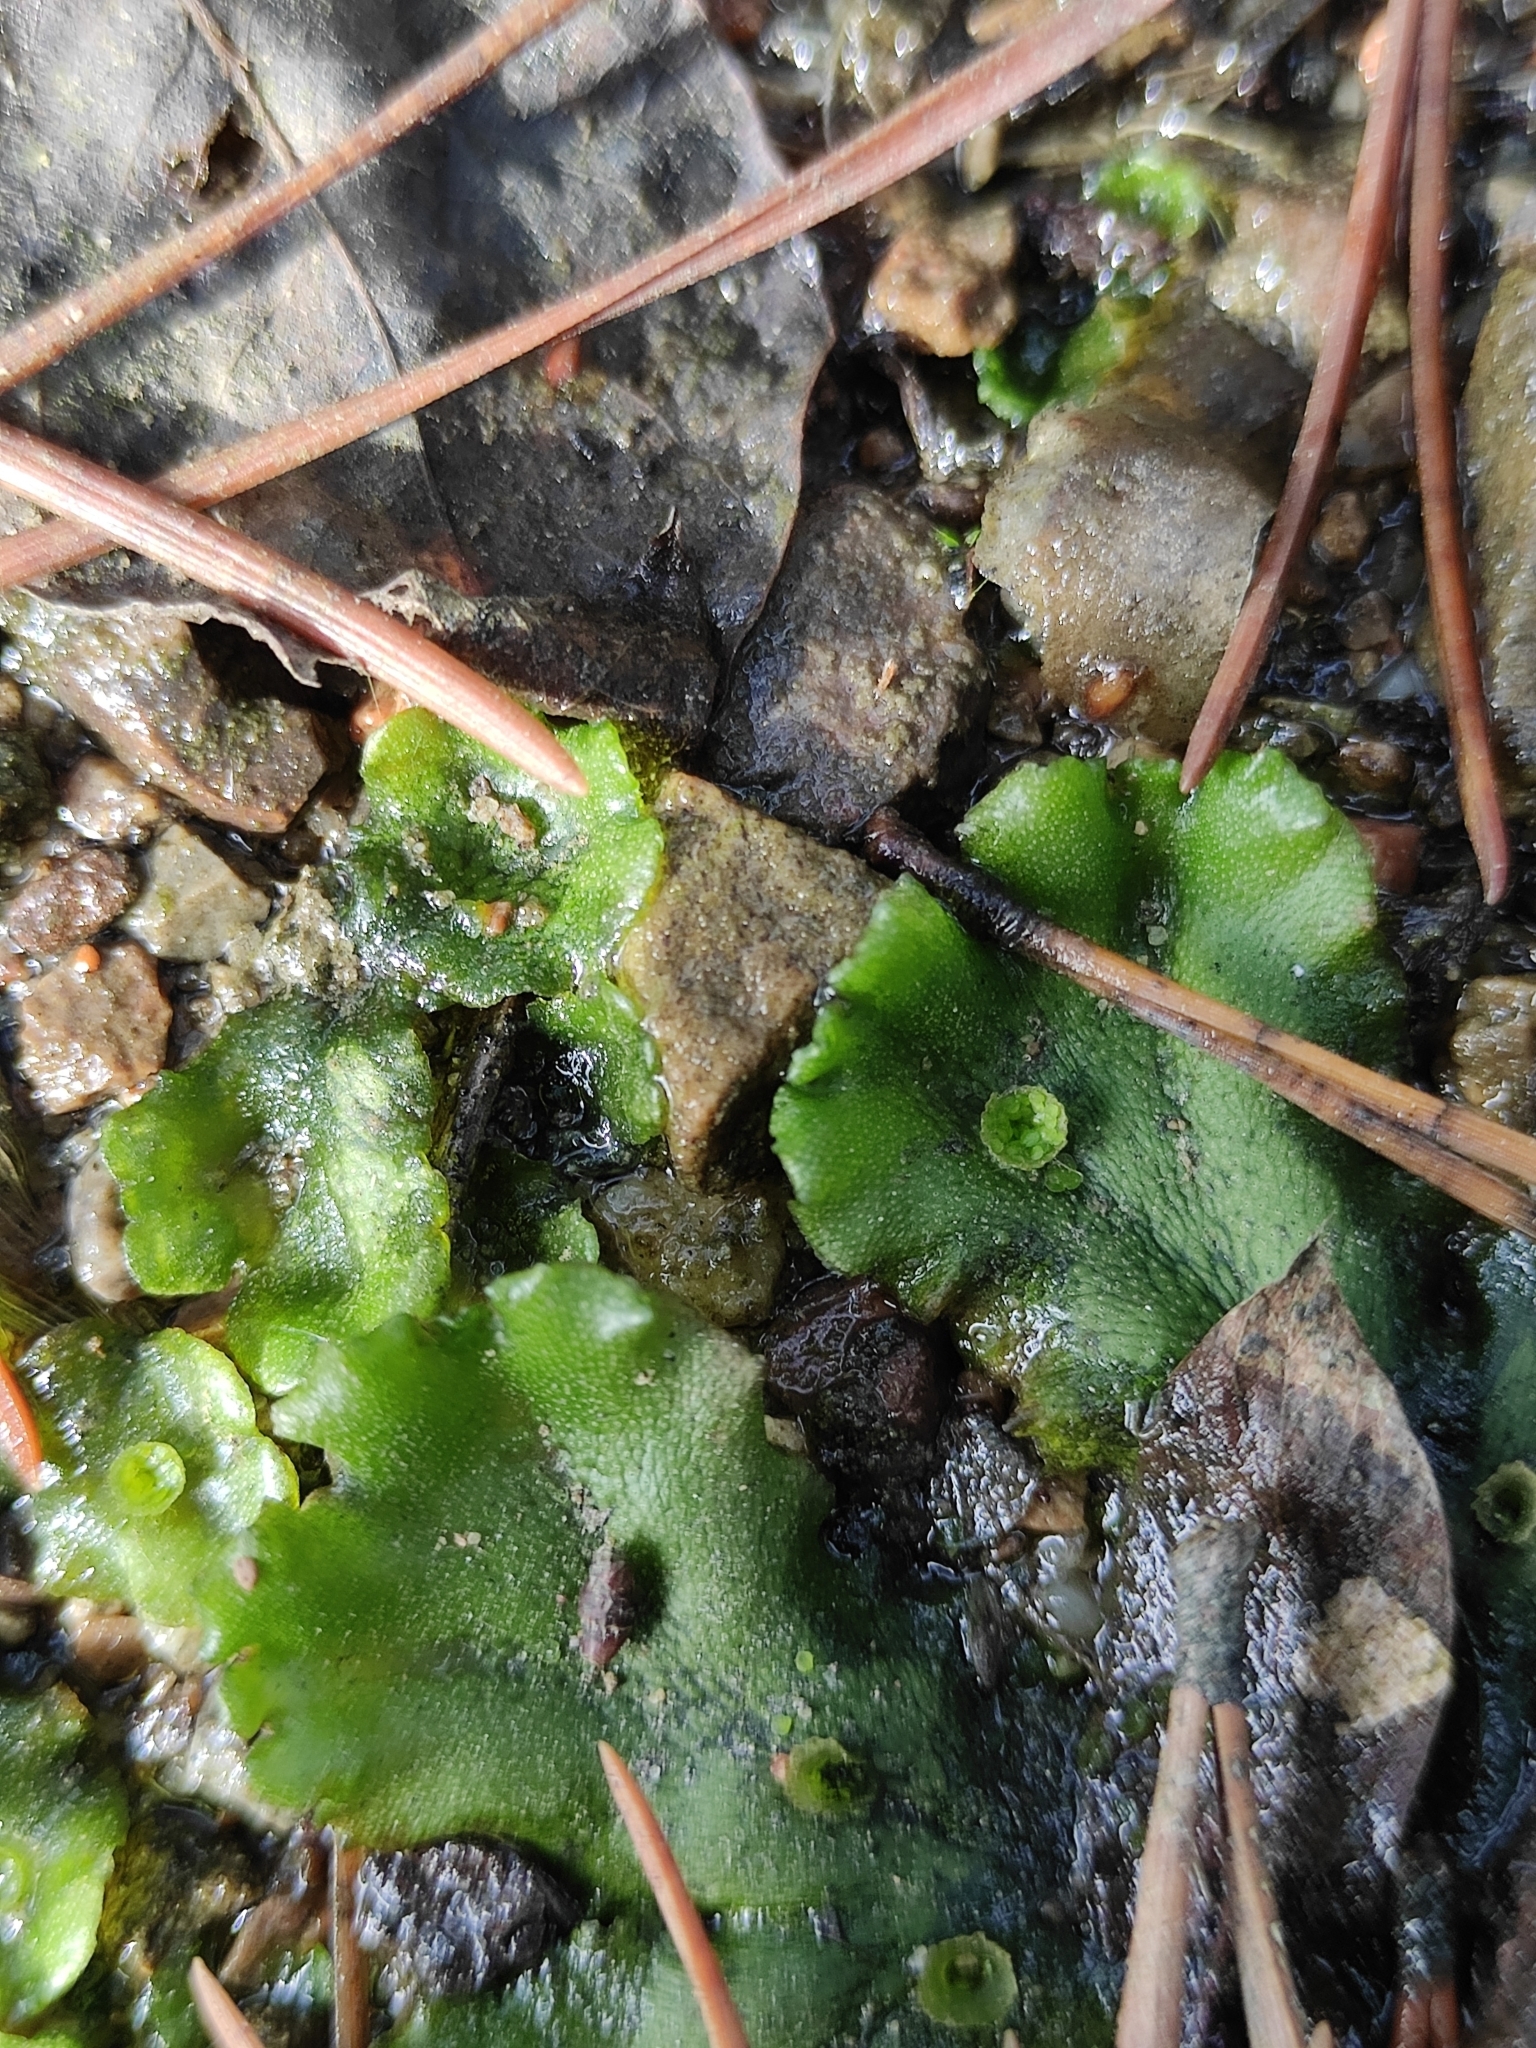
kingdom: Plantae
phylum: Marchantiophyta
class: Marchantiopsida
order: Marchantiales
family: Marchantiaceae
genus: Marchantia
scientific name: Marchantia polymorpha
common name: Common liverwort
